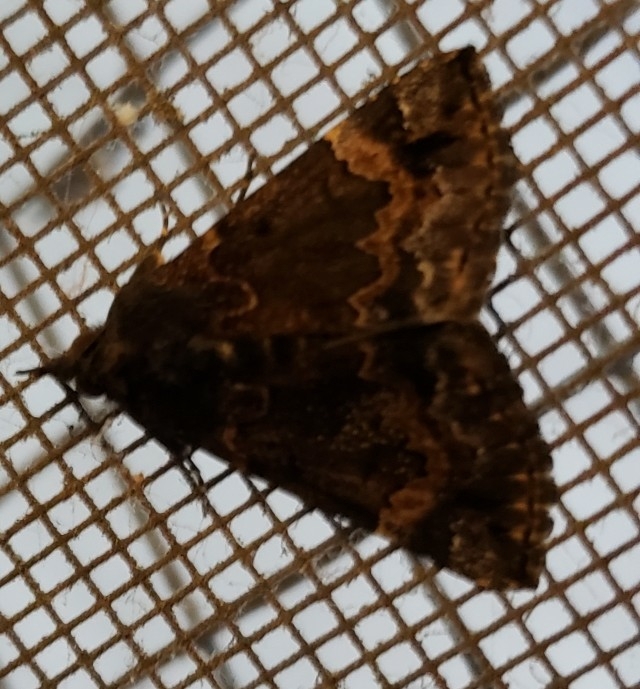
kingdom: Animalia
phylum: Arthropoda
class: Insecta
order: Lepidoptera
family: Erebidae
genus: Hypena
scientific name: Hypena palparia
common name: Mottled bomolocha moth
